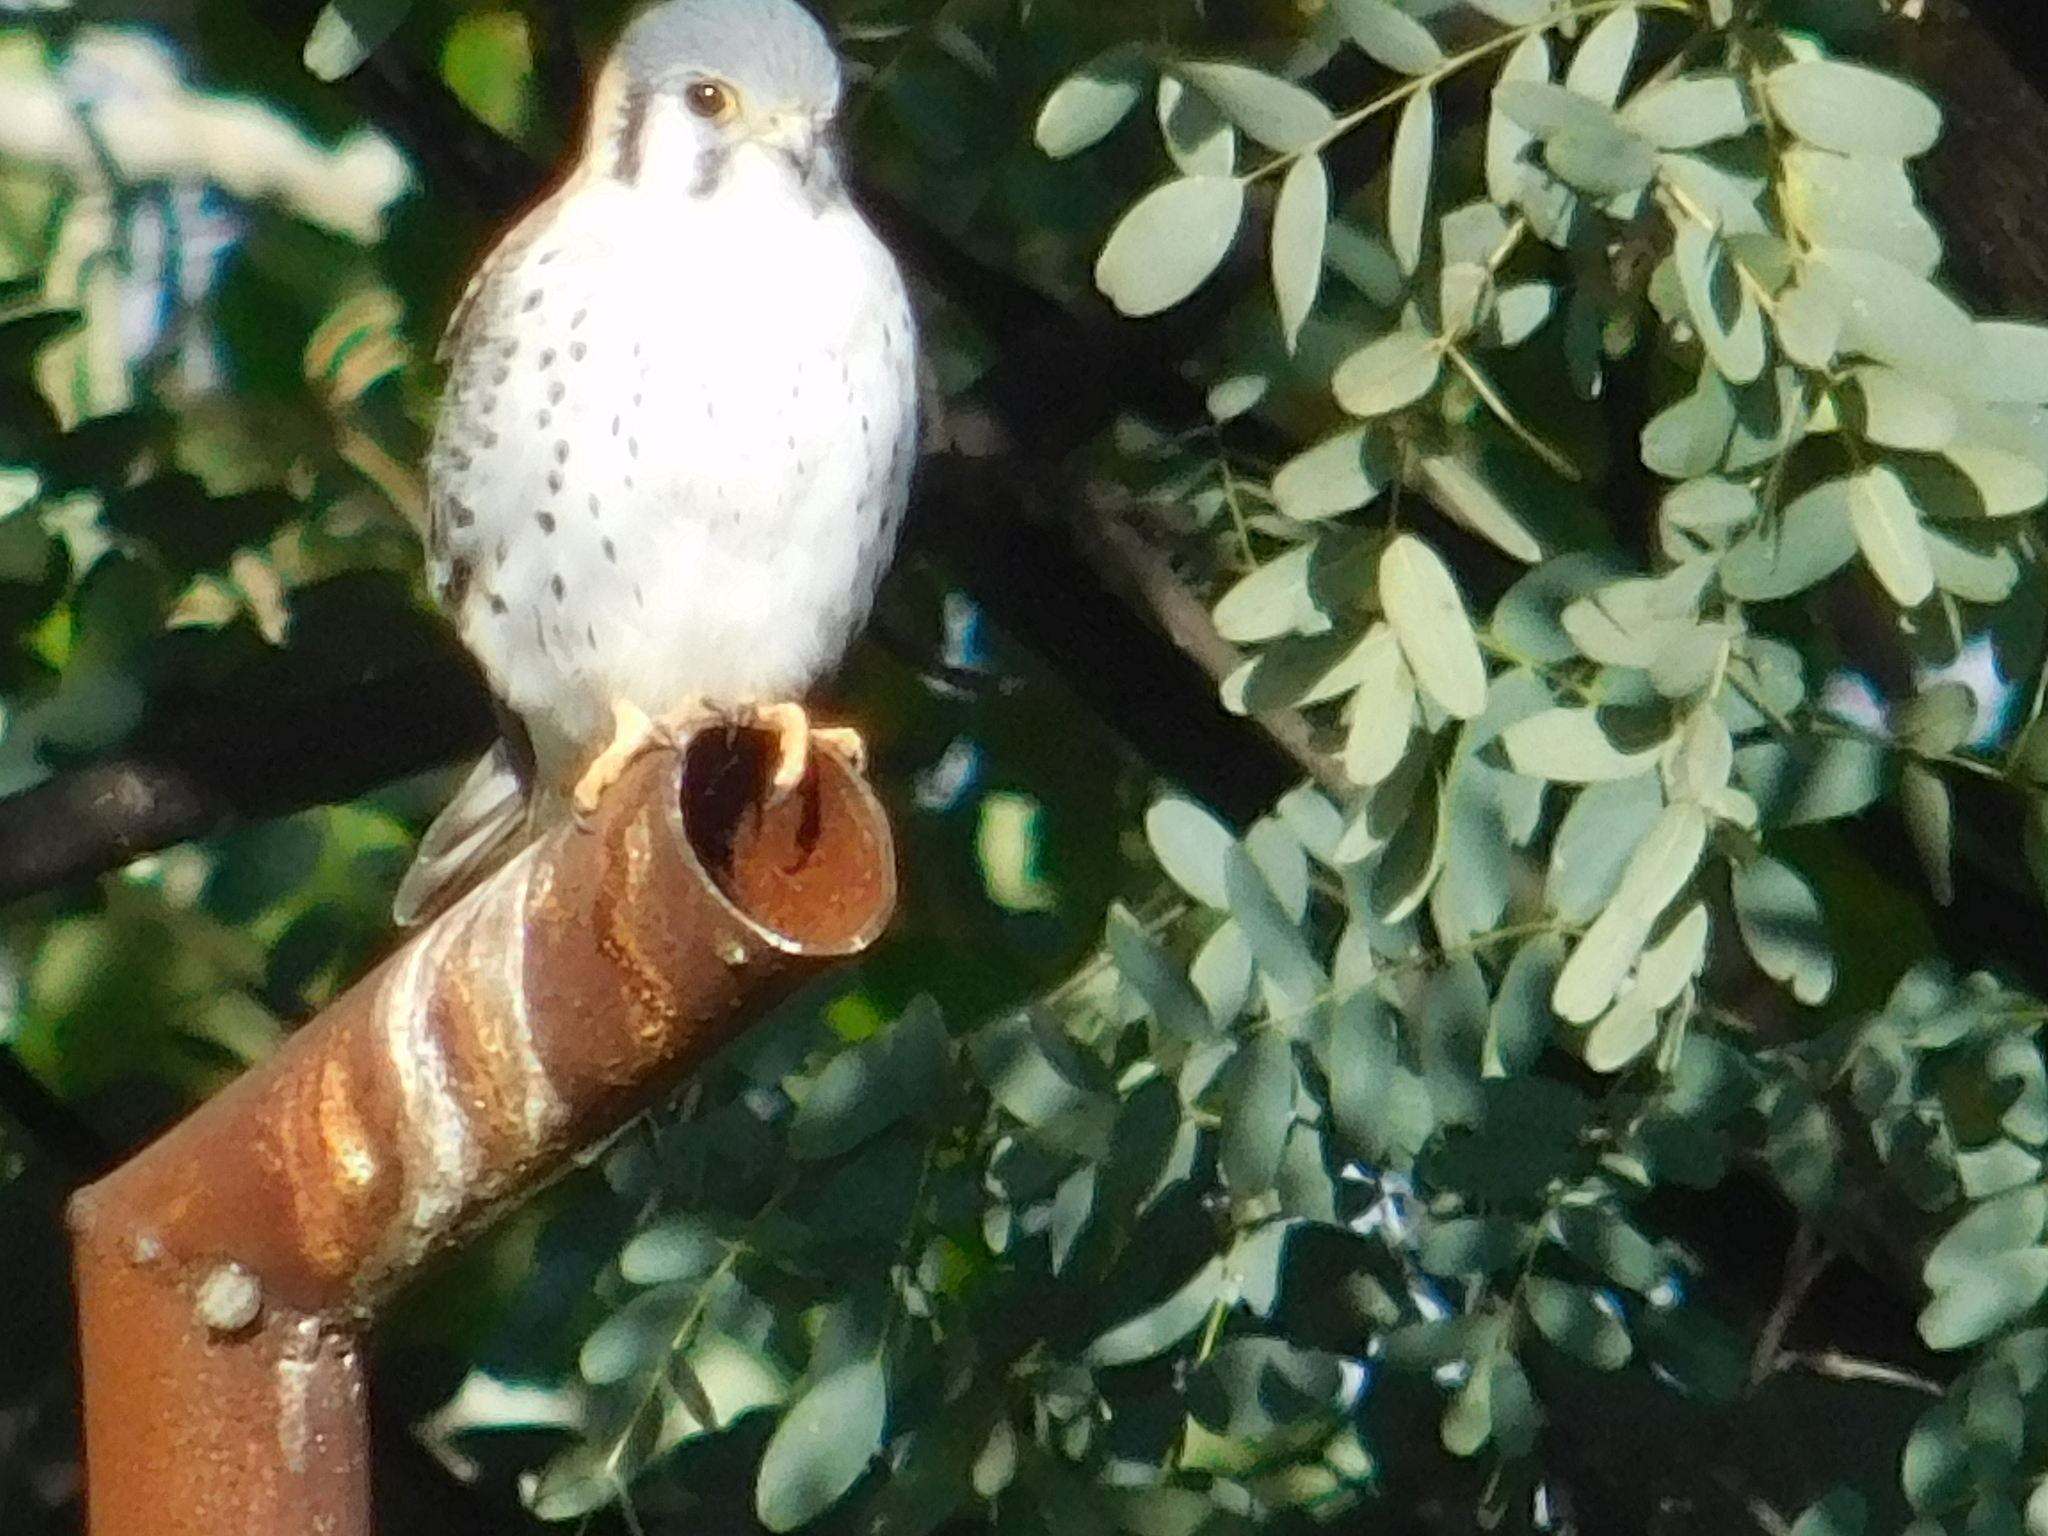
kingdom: Animalia
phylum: Chordata
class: Aves
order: Falconiformes
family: Falconidae
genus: Falco
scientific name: Falco sparverius
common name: American kestrel
